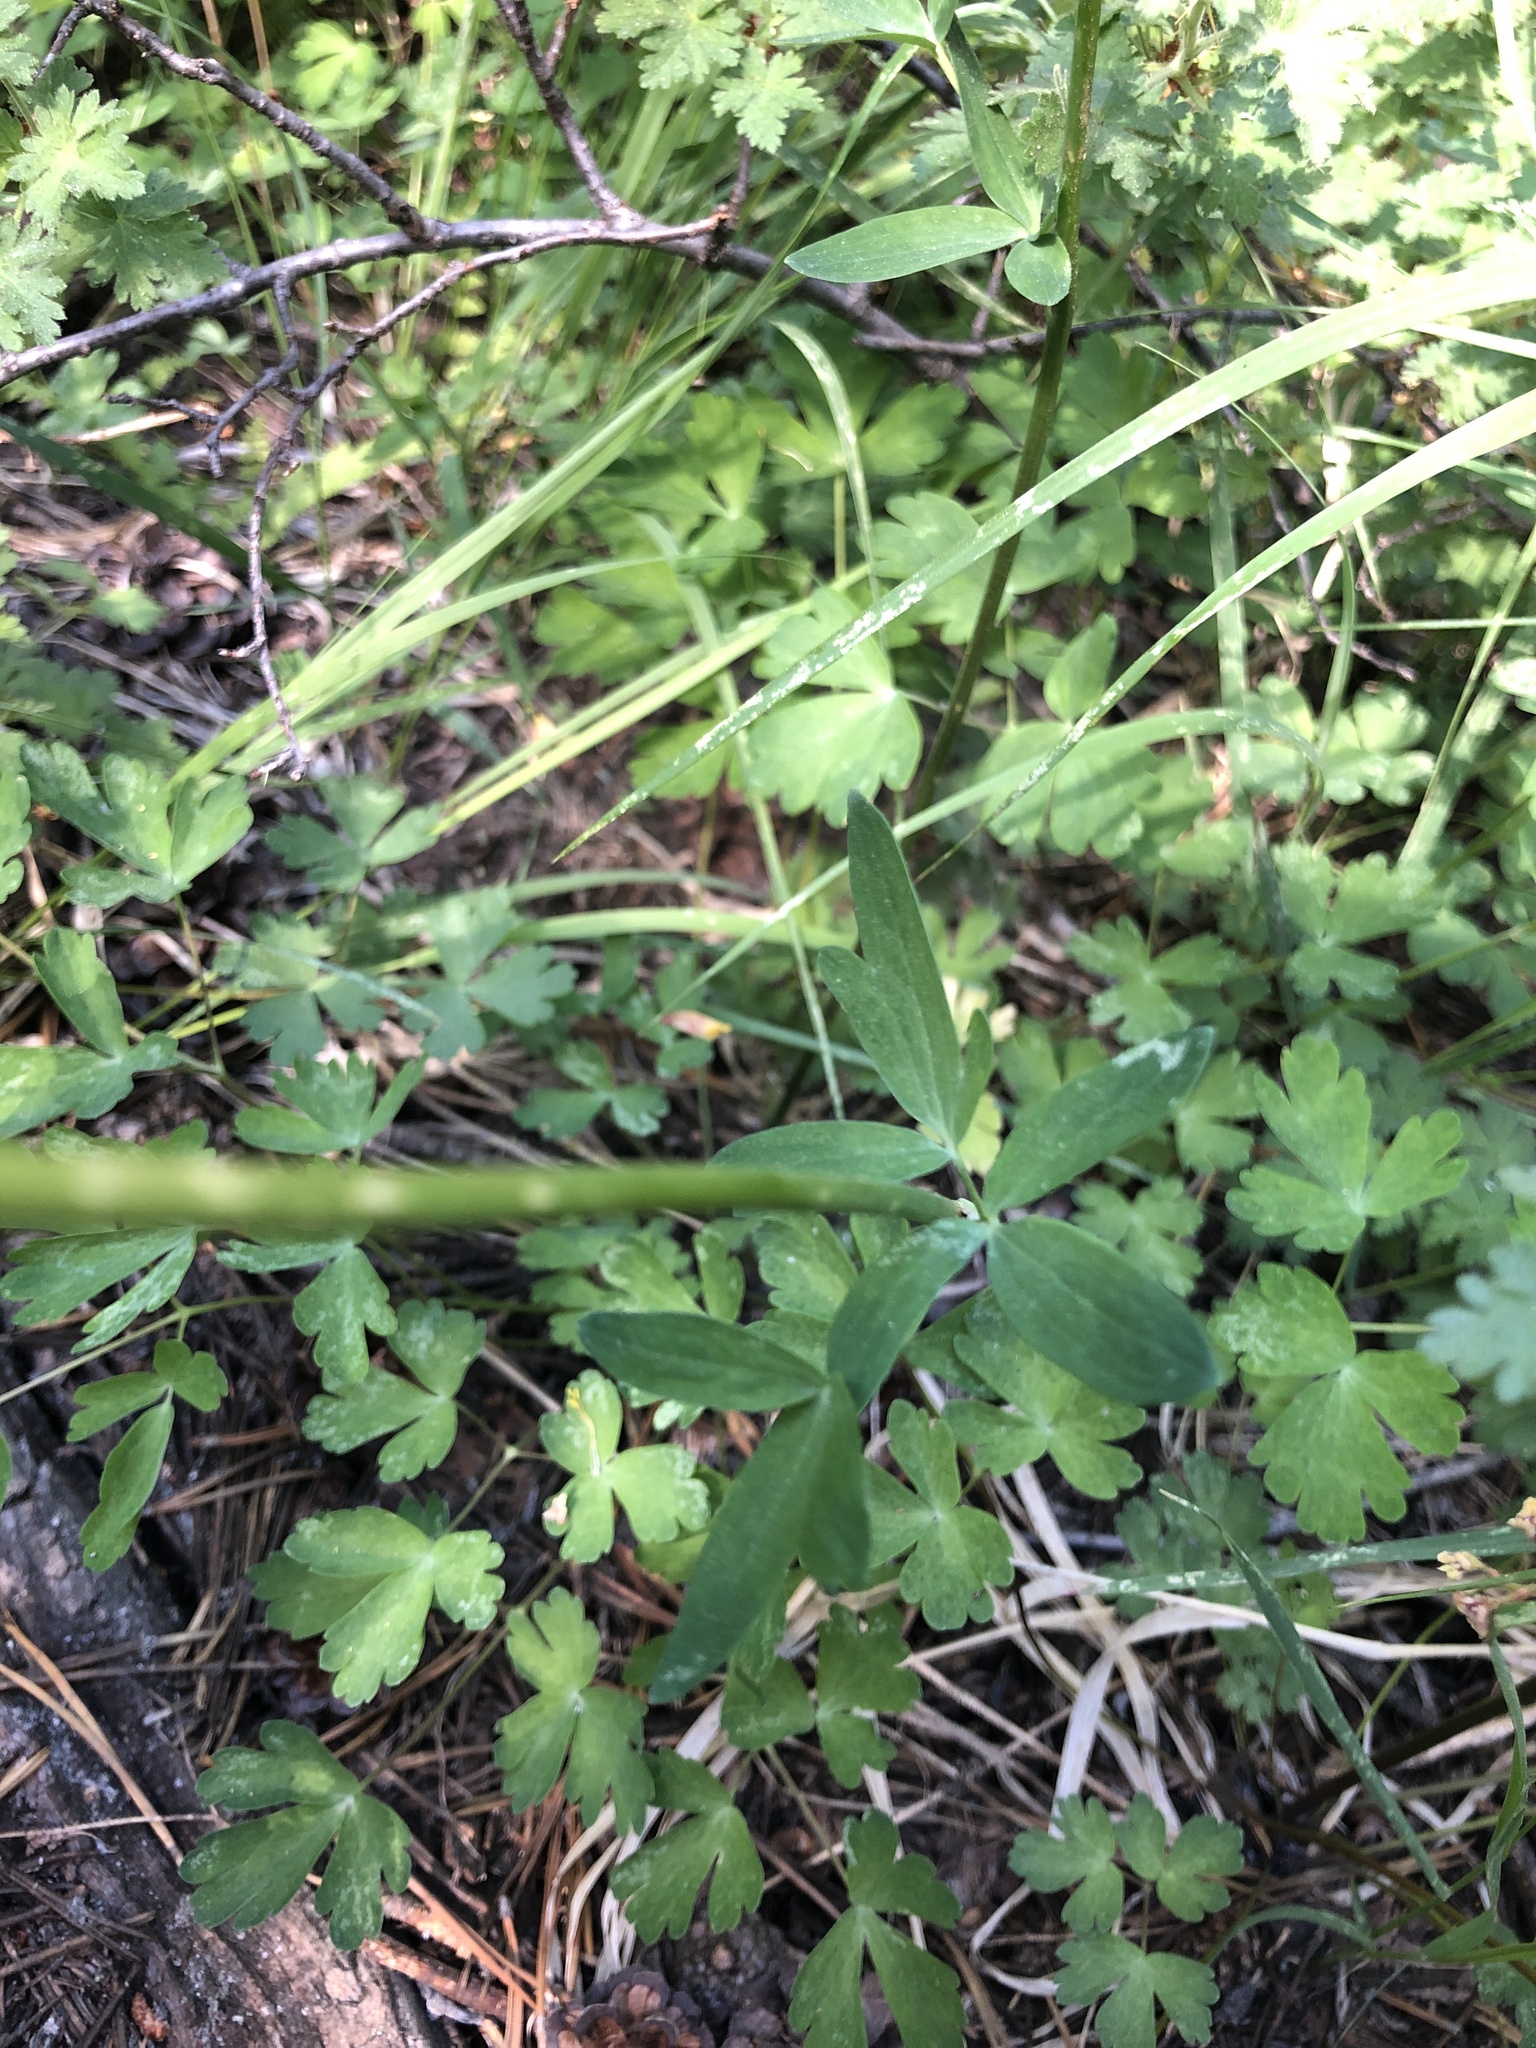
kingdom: Plantae
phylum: Tracheophyta
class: Magnoliopsida
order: Ranunculales
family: Ranunculaceae
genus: Aquilegia
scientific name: Aquilegia formosa
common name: Sitka columbine
